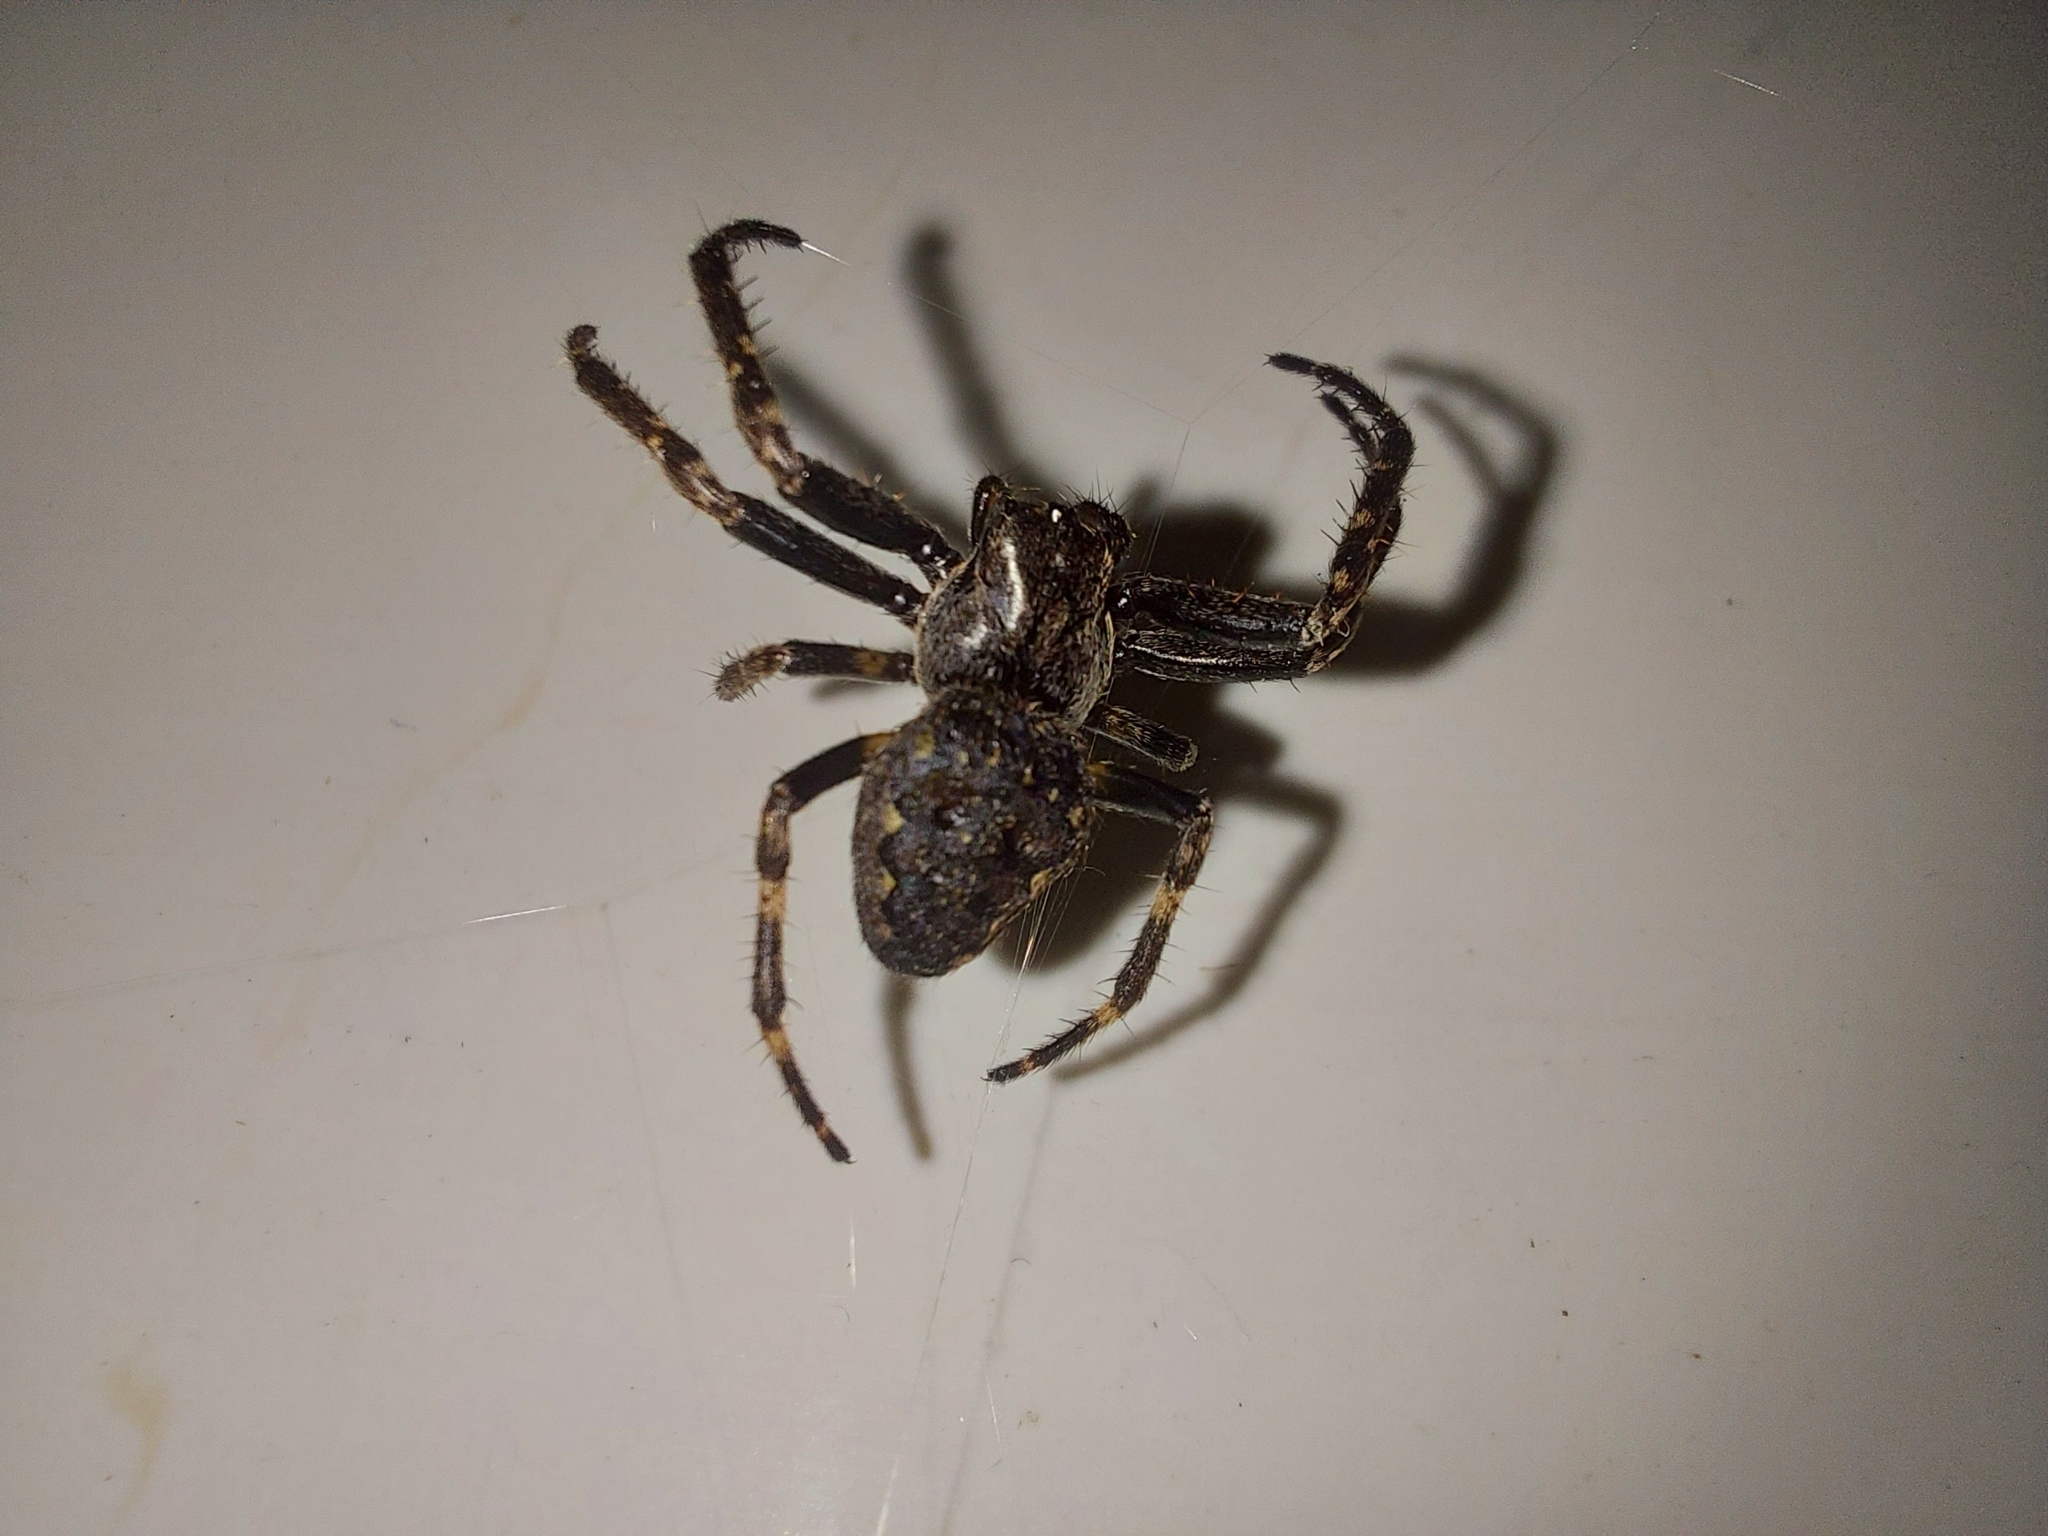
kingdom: Animalia
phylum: Arthropoda
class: Arachnida
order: Araneae
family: Araneidae
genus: Nuctenea
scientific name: Nuctenea umbratica
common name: Toad spider
